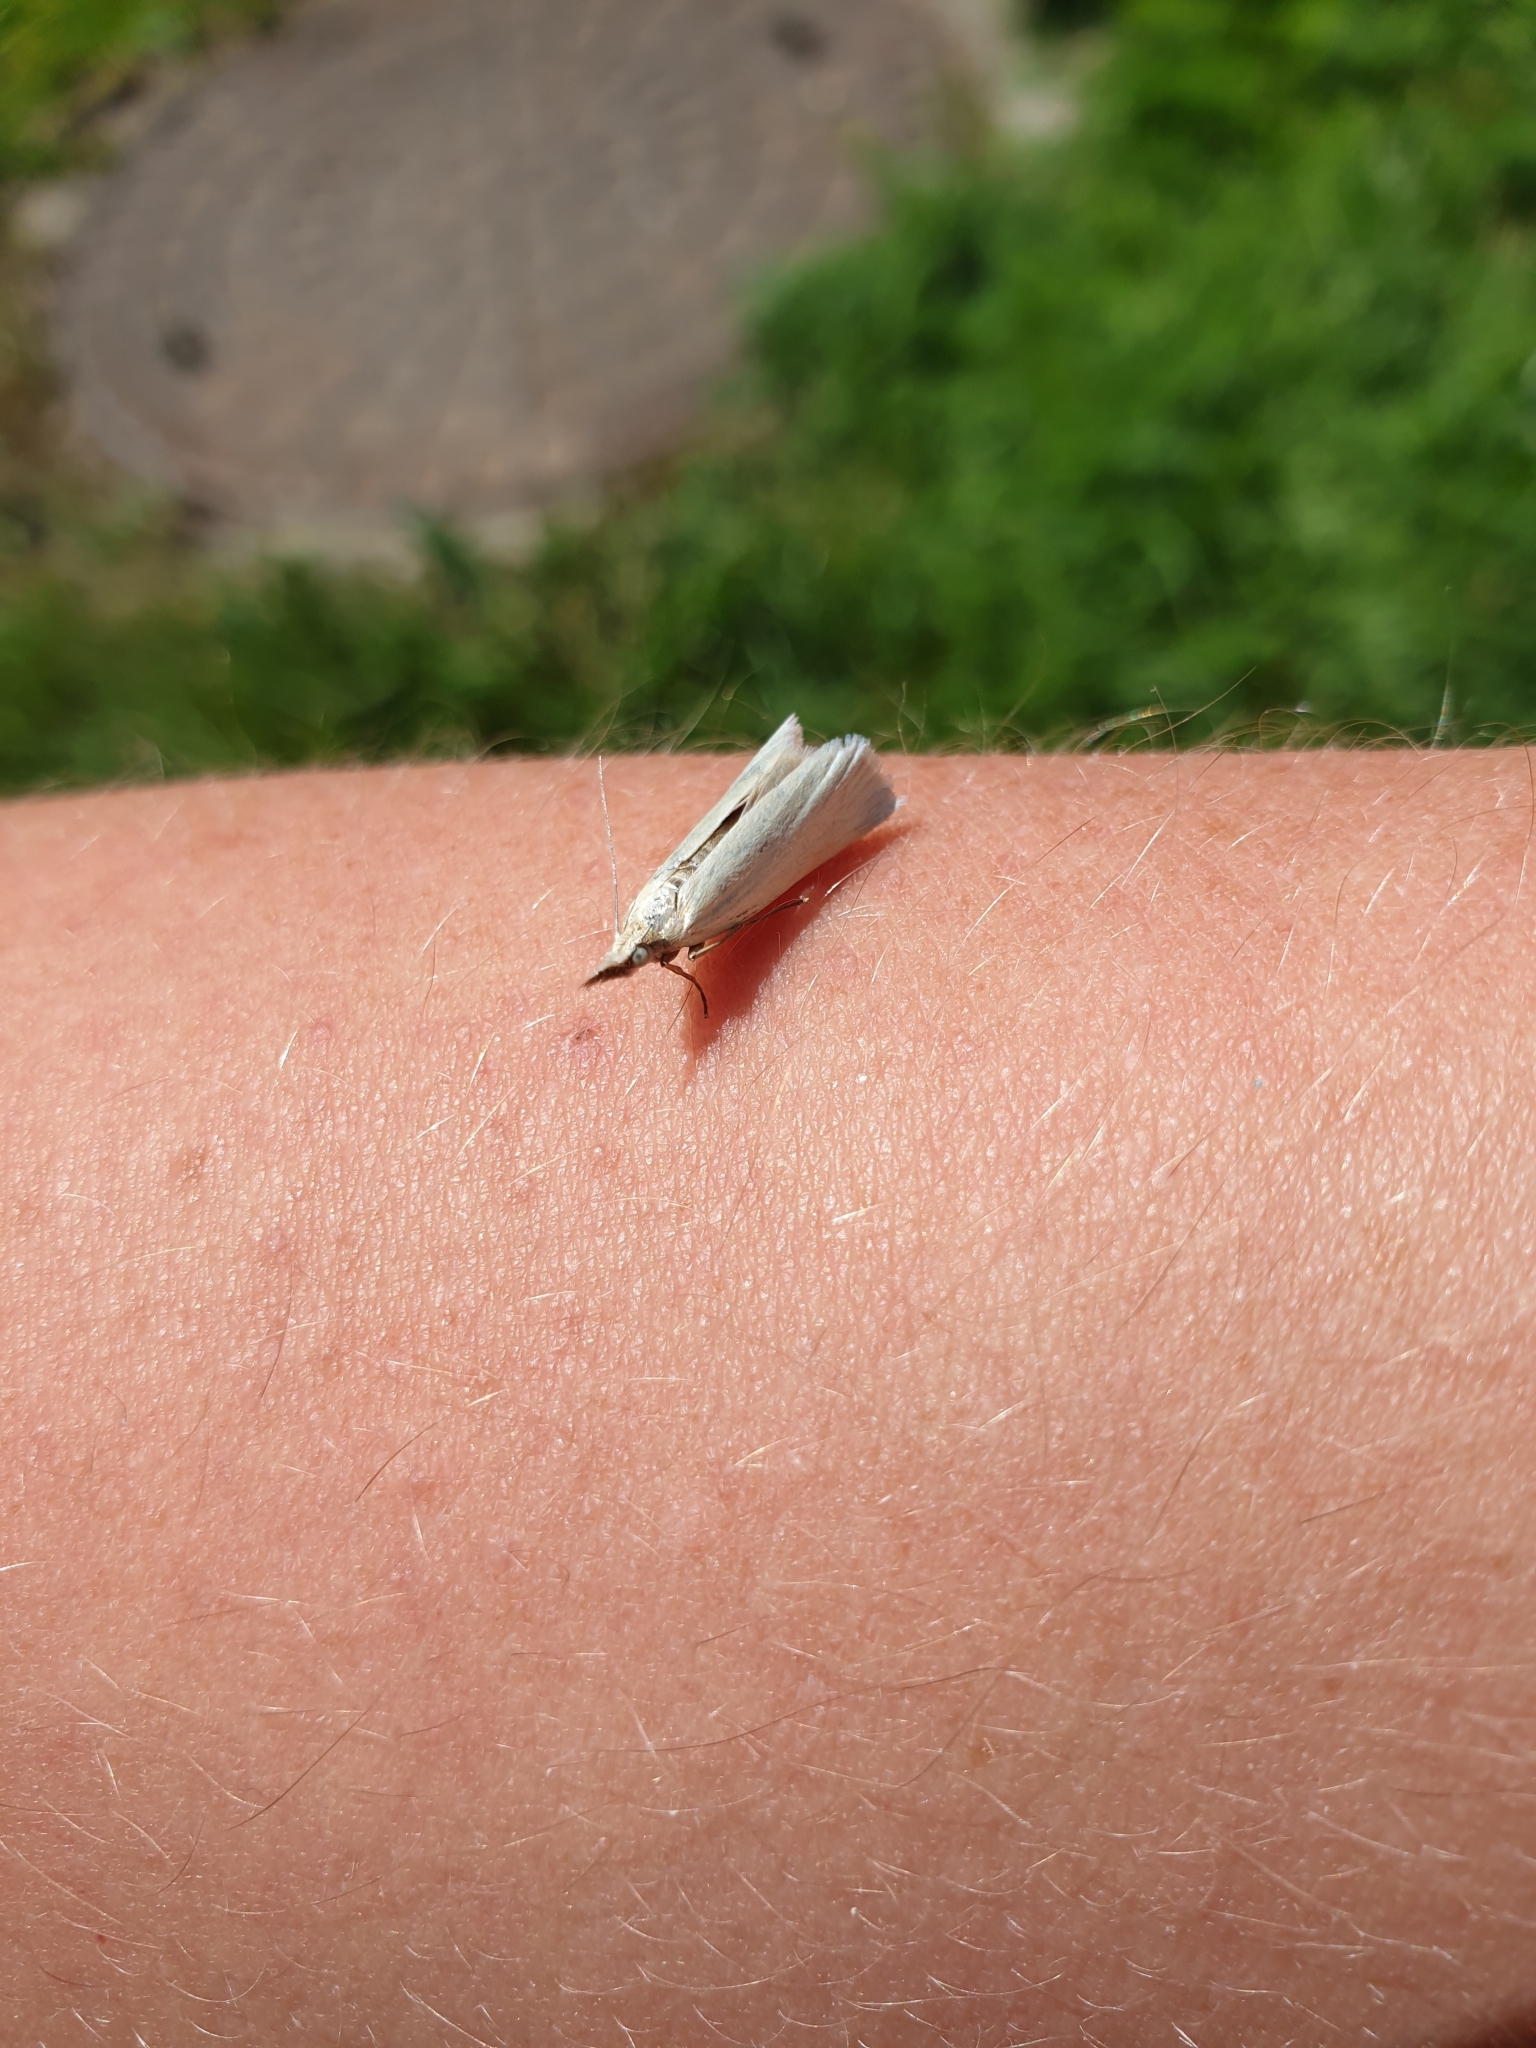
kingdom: Animalia
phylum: Arthropoda
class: Insecta
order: Lepidoptera
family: Crambidae
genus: Crambus
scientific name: Crambus perlellus
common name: Yellow satin veneer
